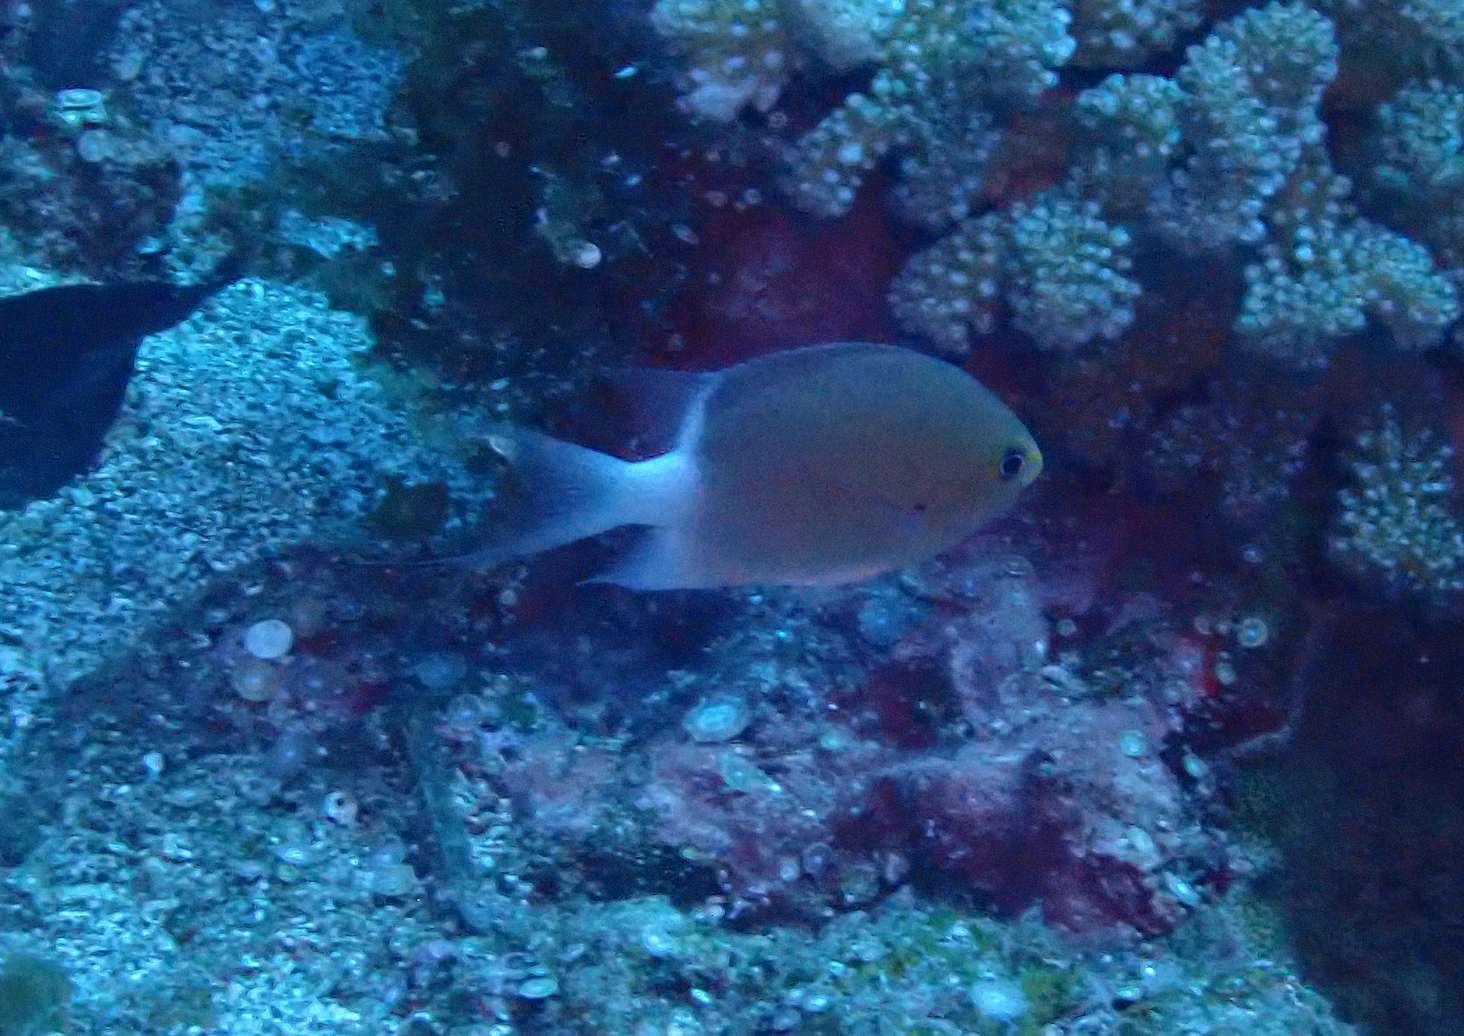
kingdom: Animalia
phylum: Chordata
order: Perciformes
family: Pomacentridae
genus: Chromis
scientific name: Chromis ovatiformes
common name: Ovate chromis
